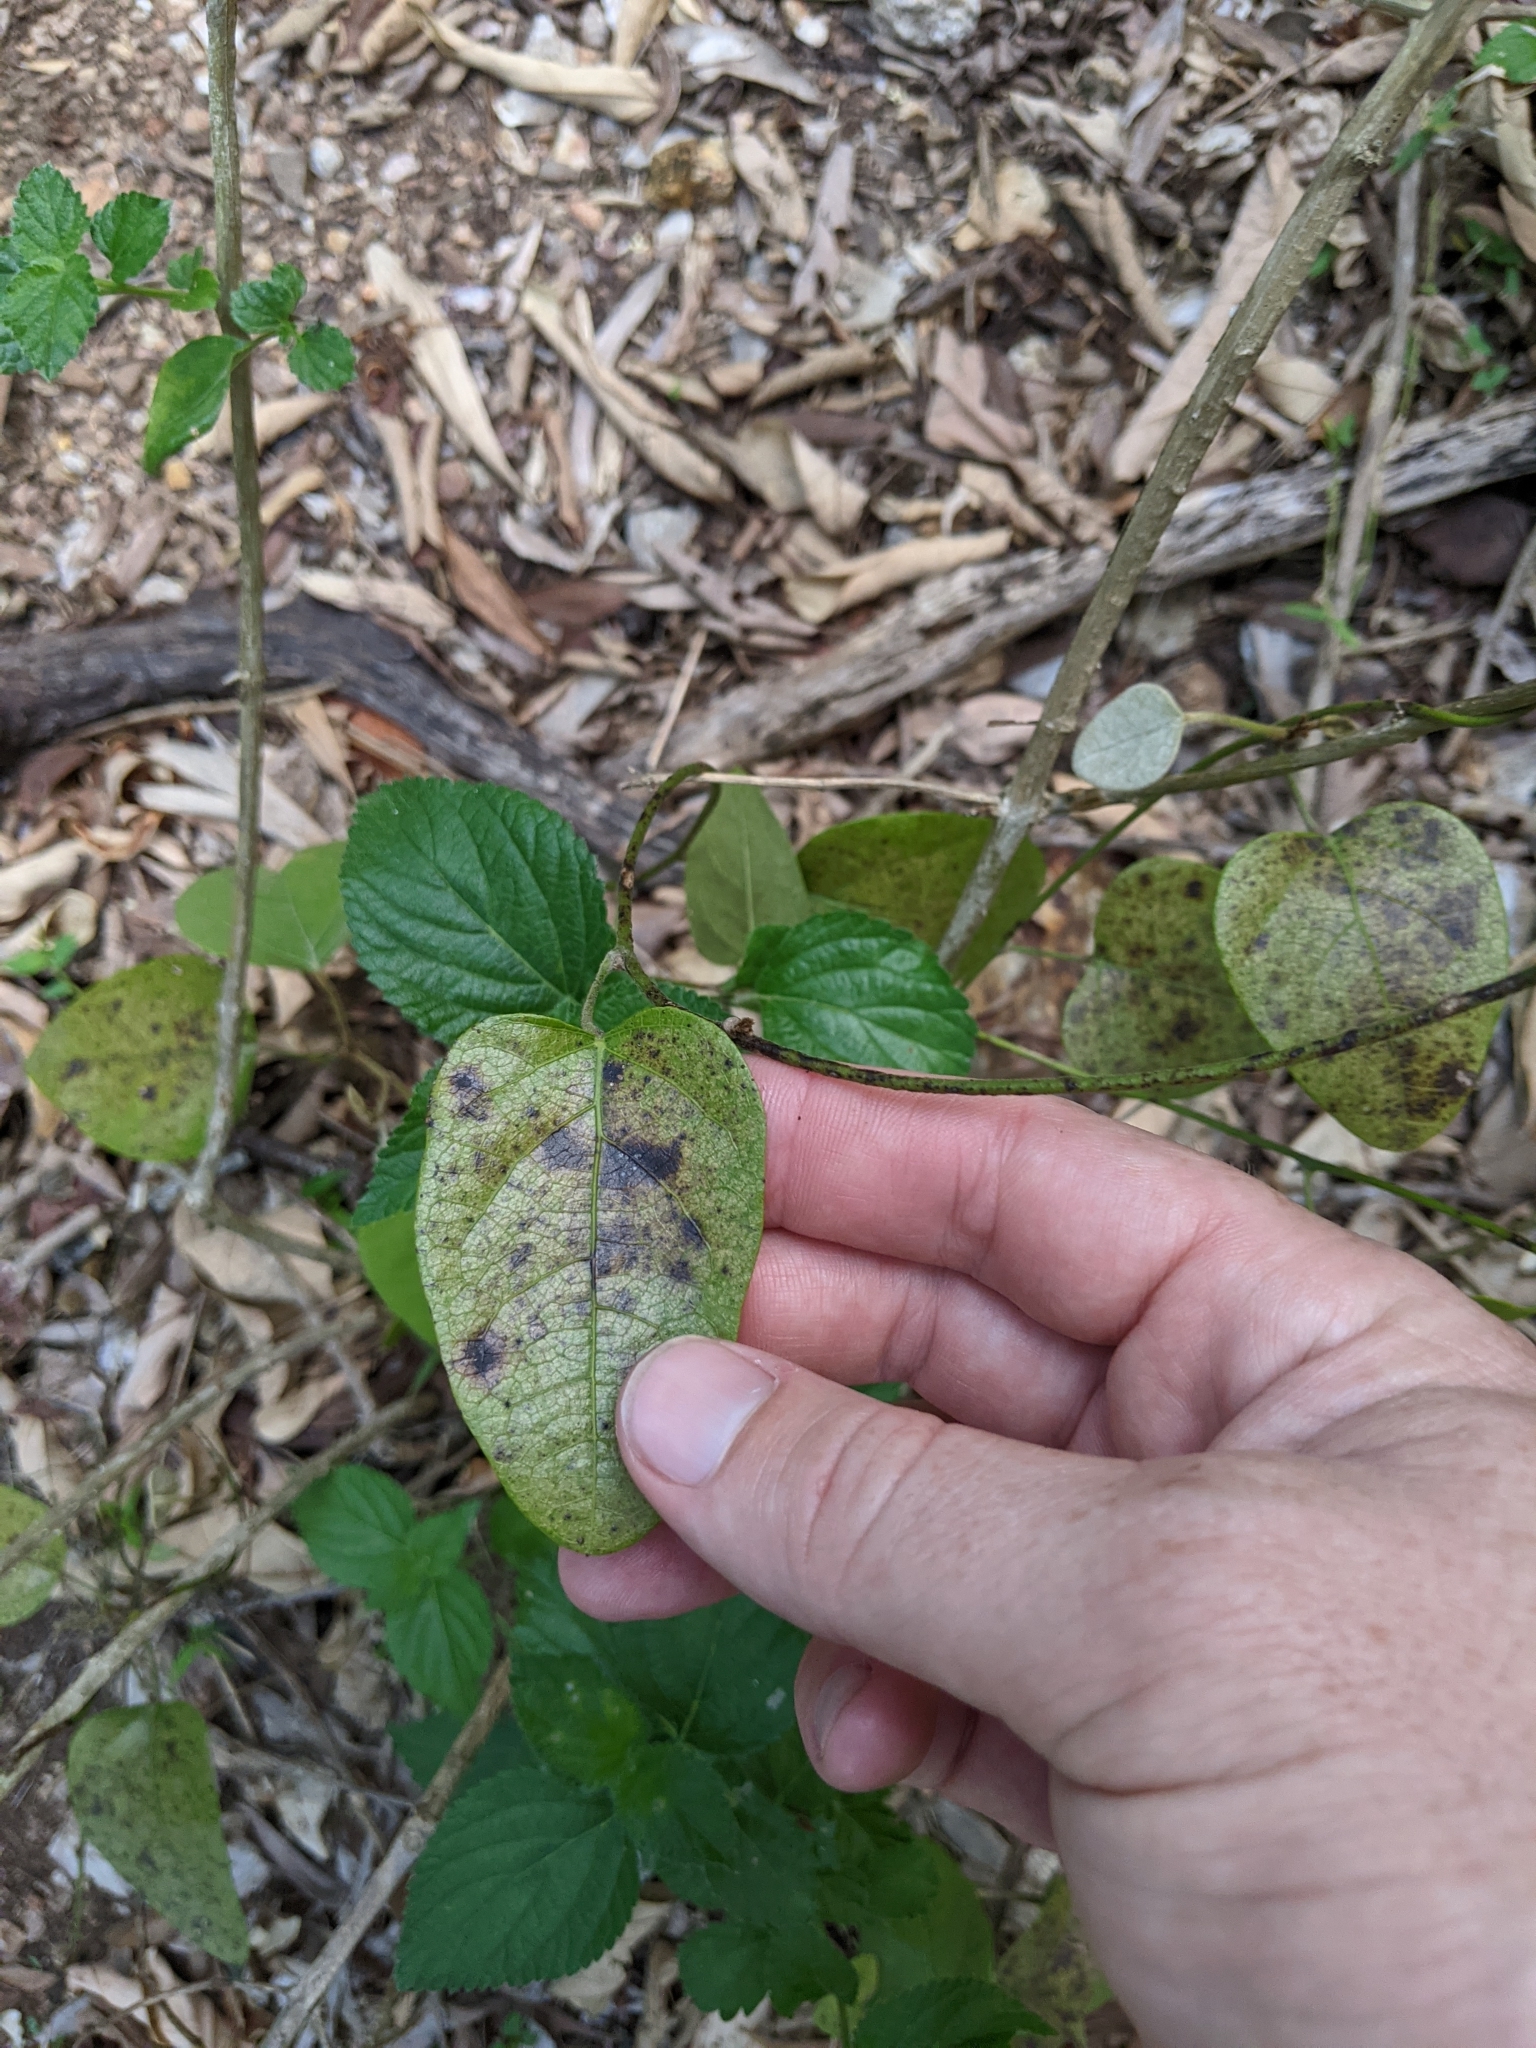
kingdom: Plantae
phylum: Tracheophyta
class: Magnoliopsida
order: Ranunculales
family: Menispermaceae
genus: Pleogyne
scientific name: Pleogyne australis
